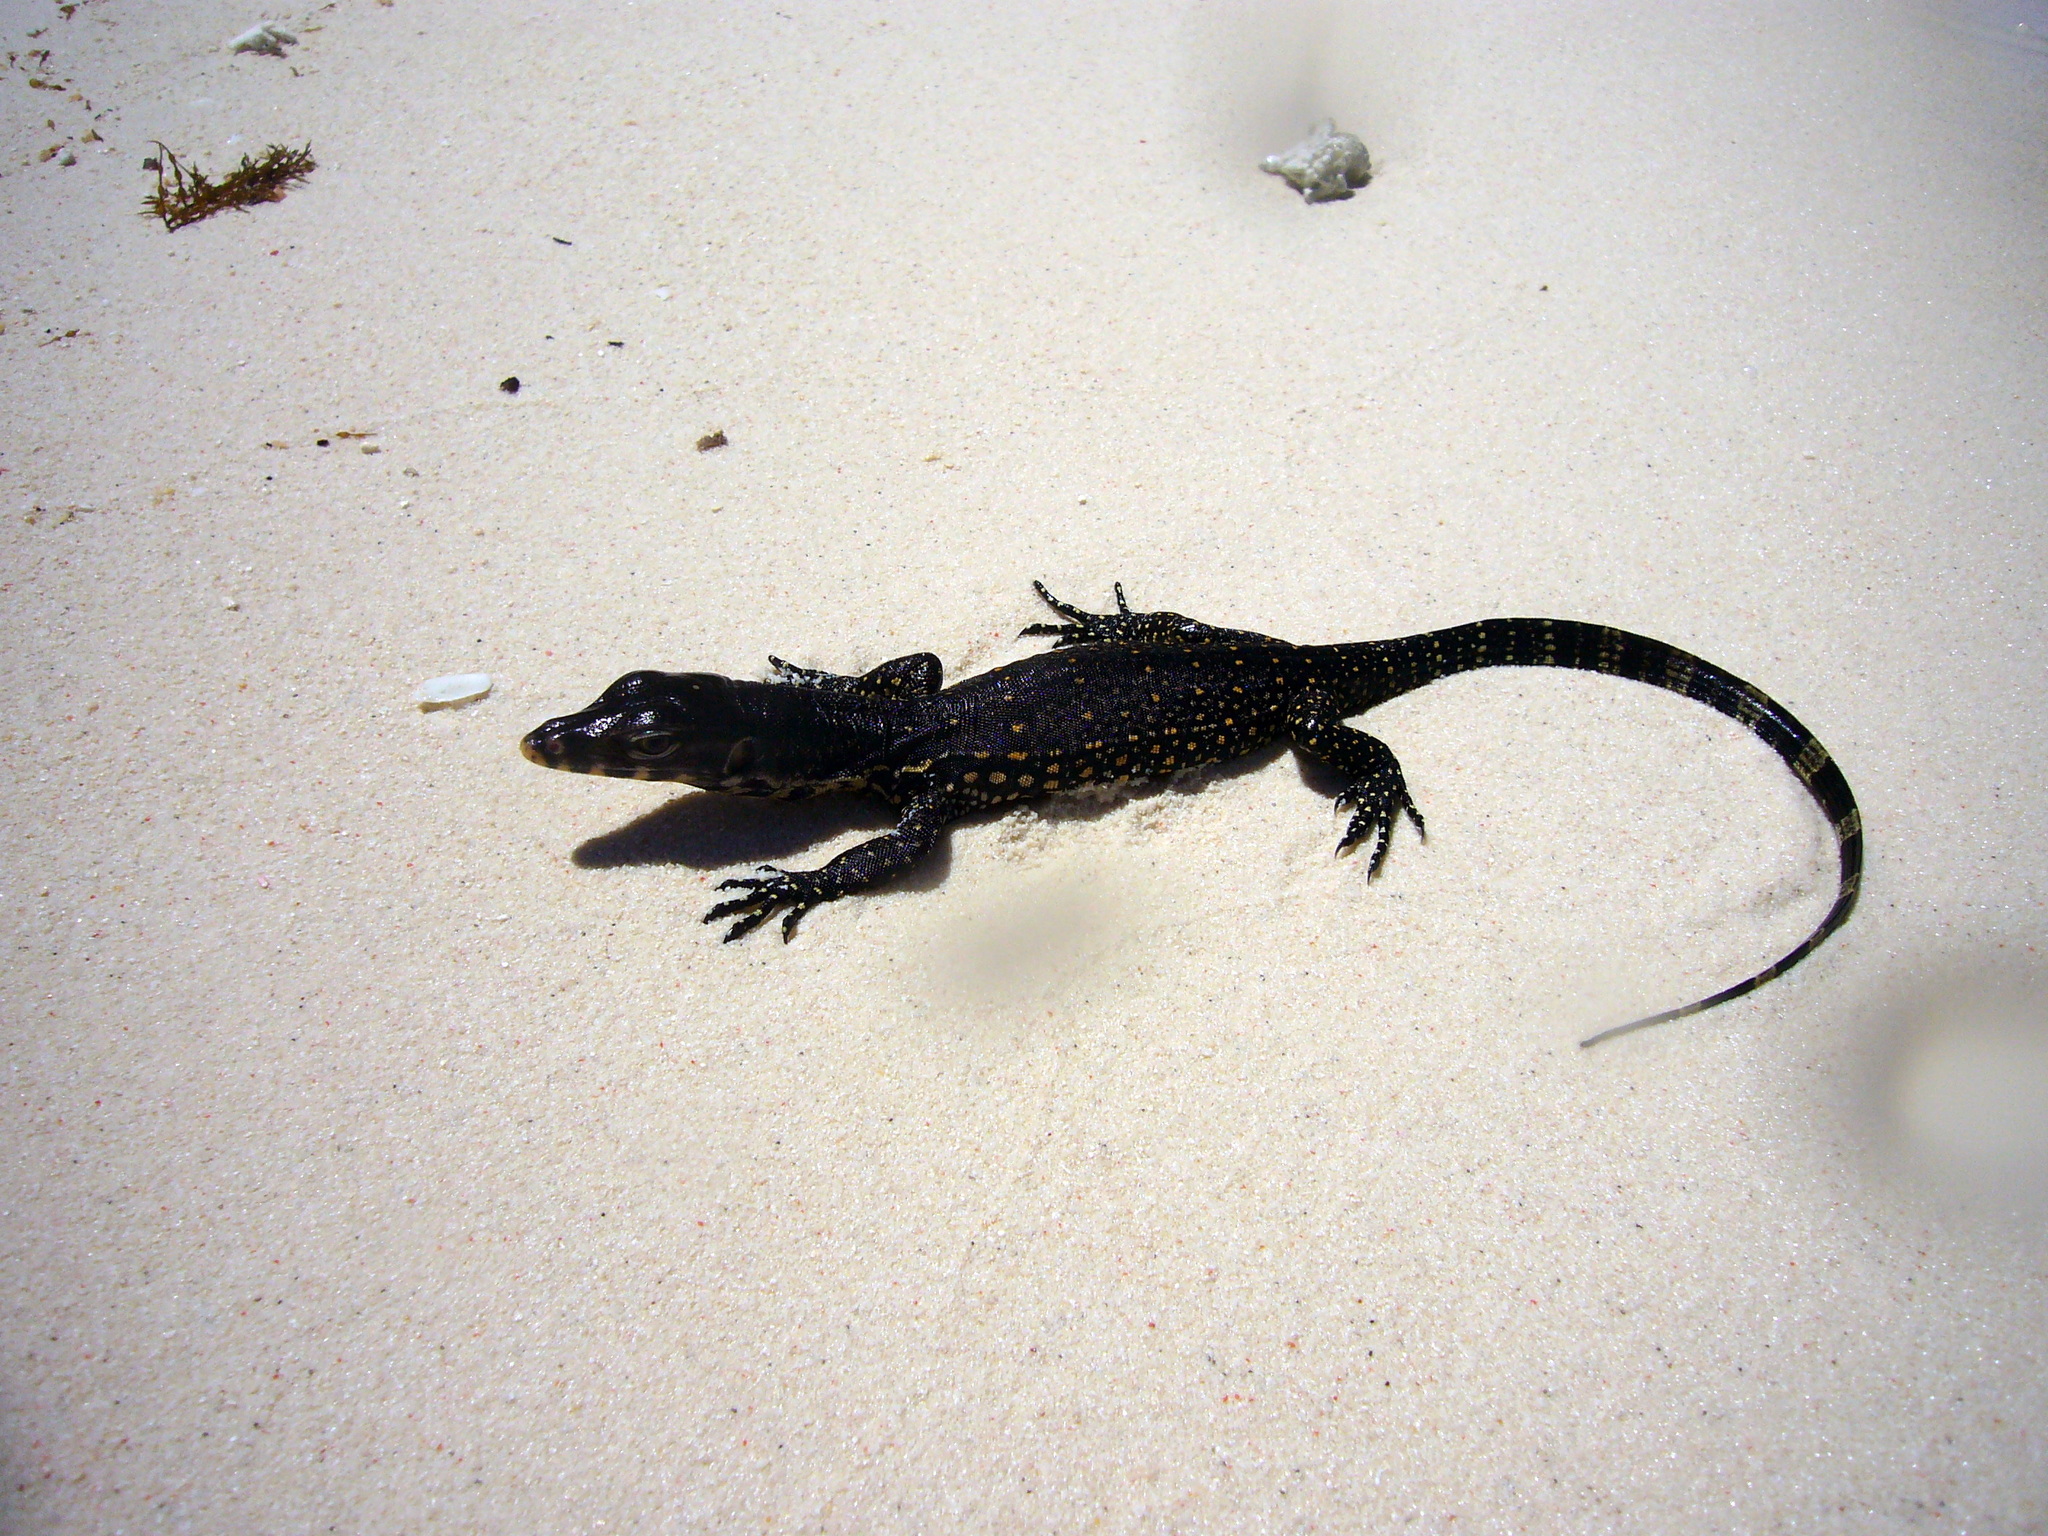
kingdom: Animalia
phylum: Chordata
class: Squamata
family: Varanidae
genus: Varanus
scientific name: Varanus salvator
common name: Common water monitor
